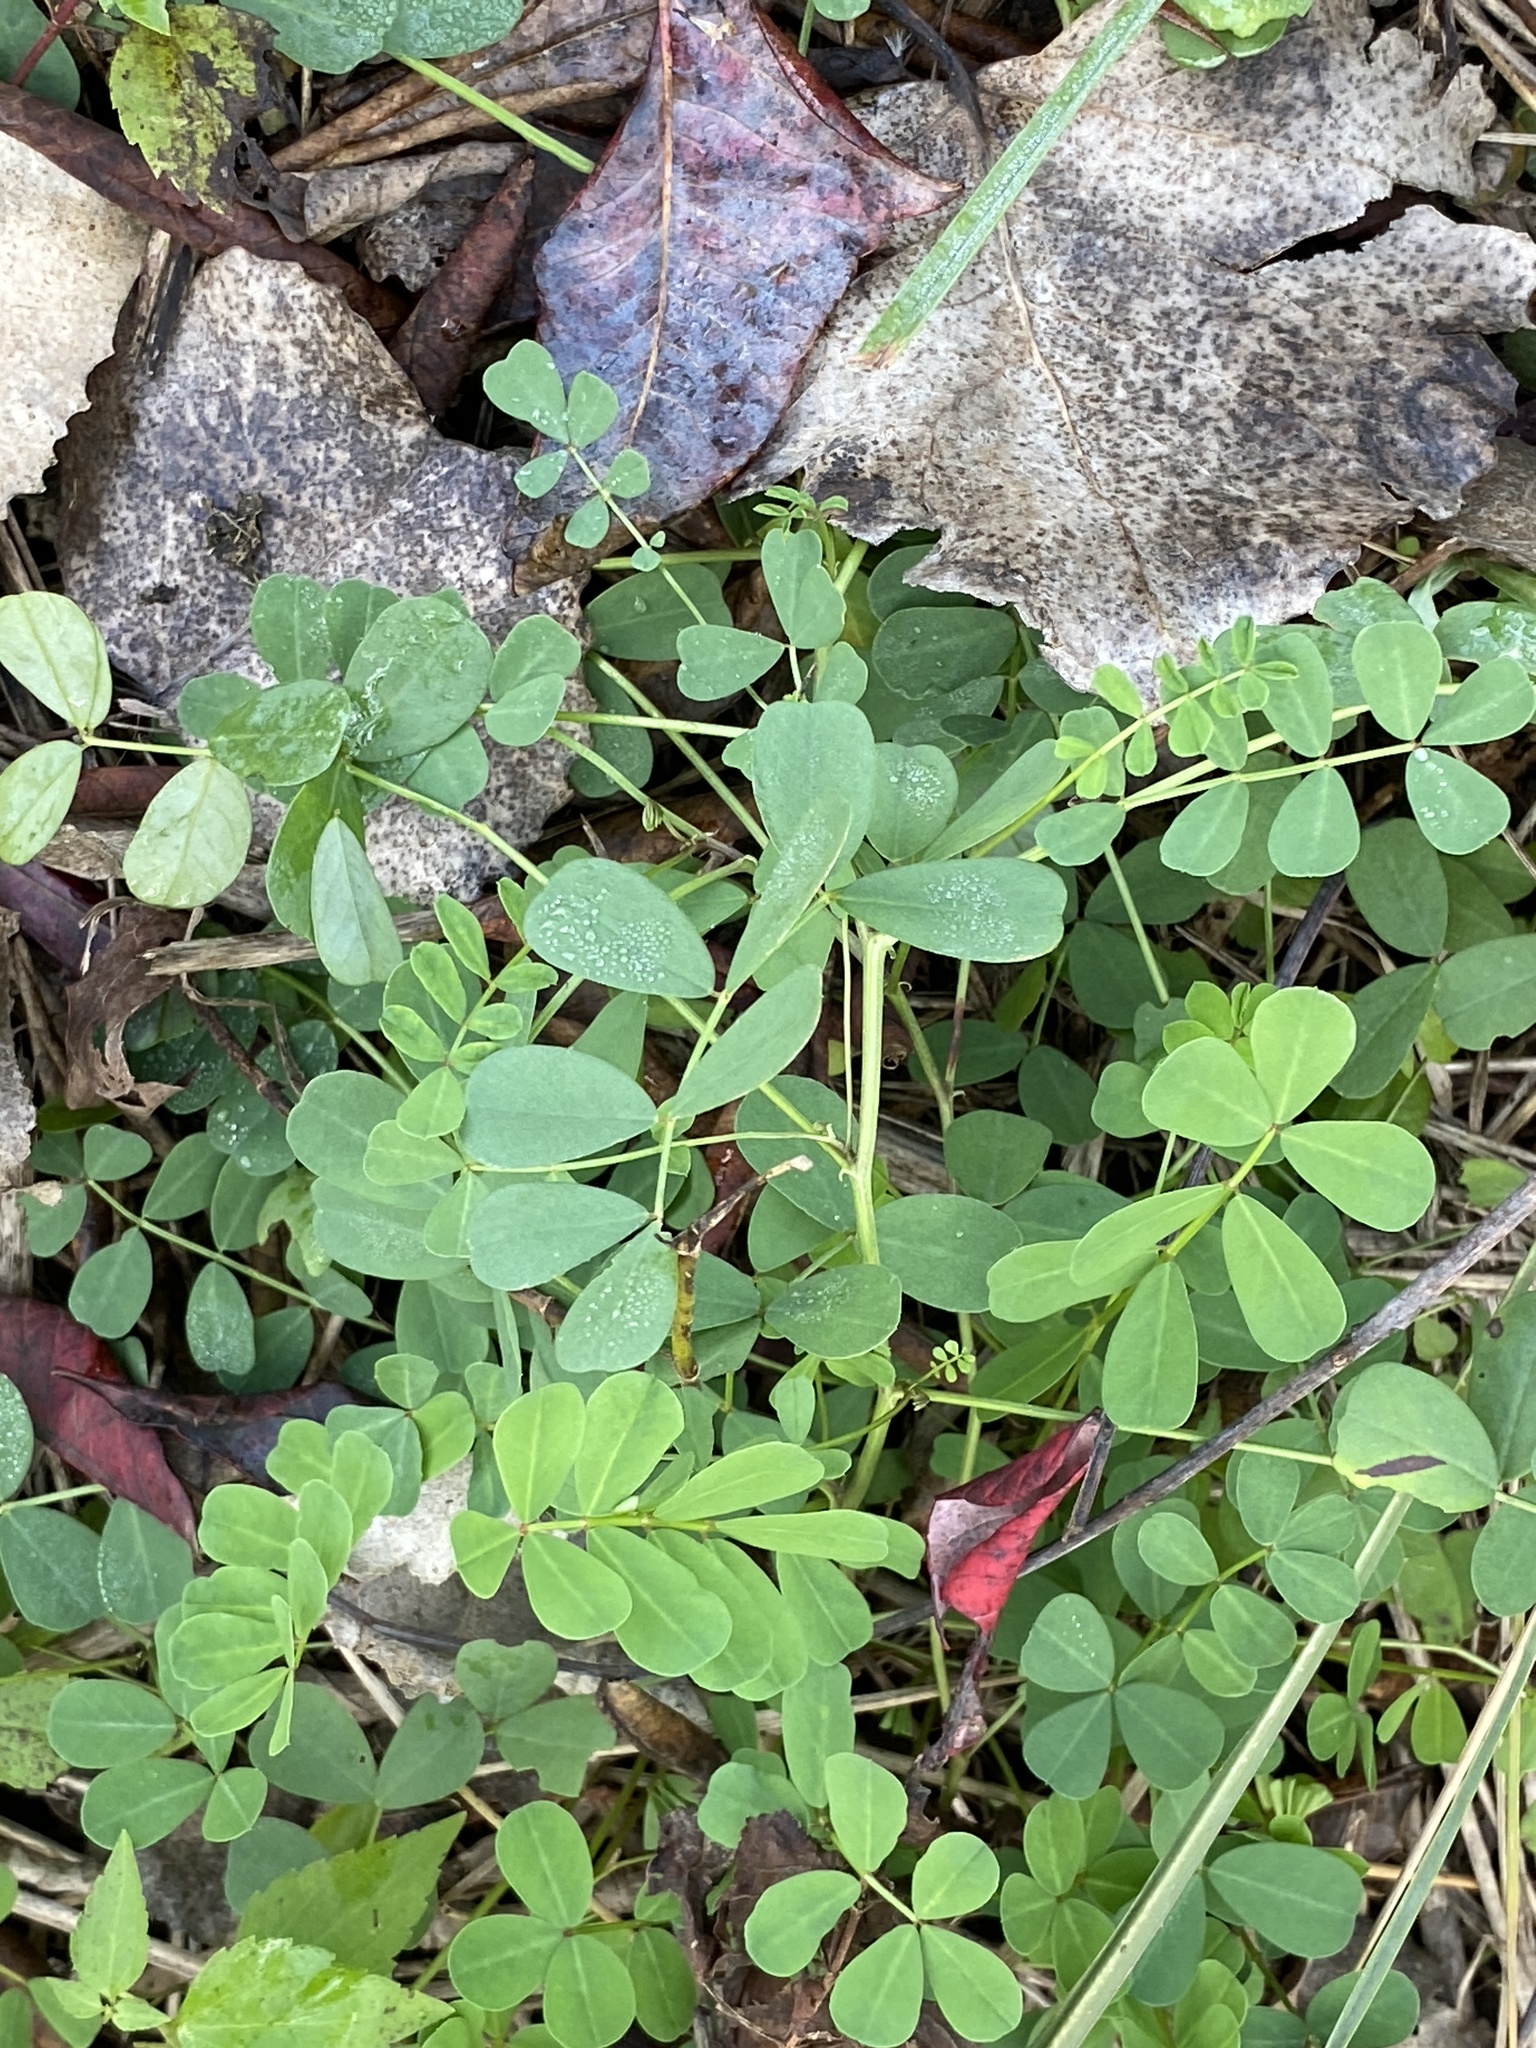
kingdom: Plantae
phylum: Tracheophyta
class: Magnoliopsida
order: Fabales
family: Fabaceae
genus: Coronilla
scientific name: Coronilla varia
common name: Crownvetch
